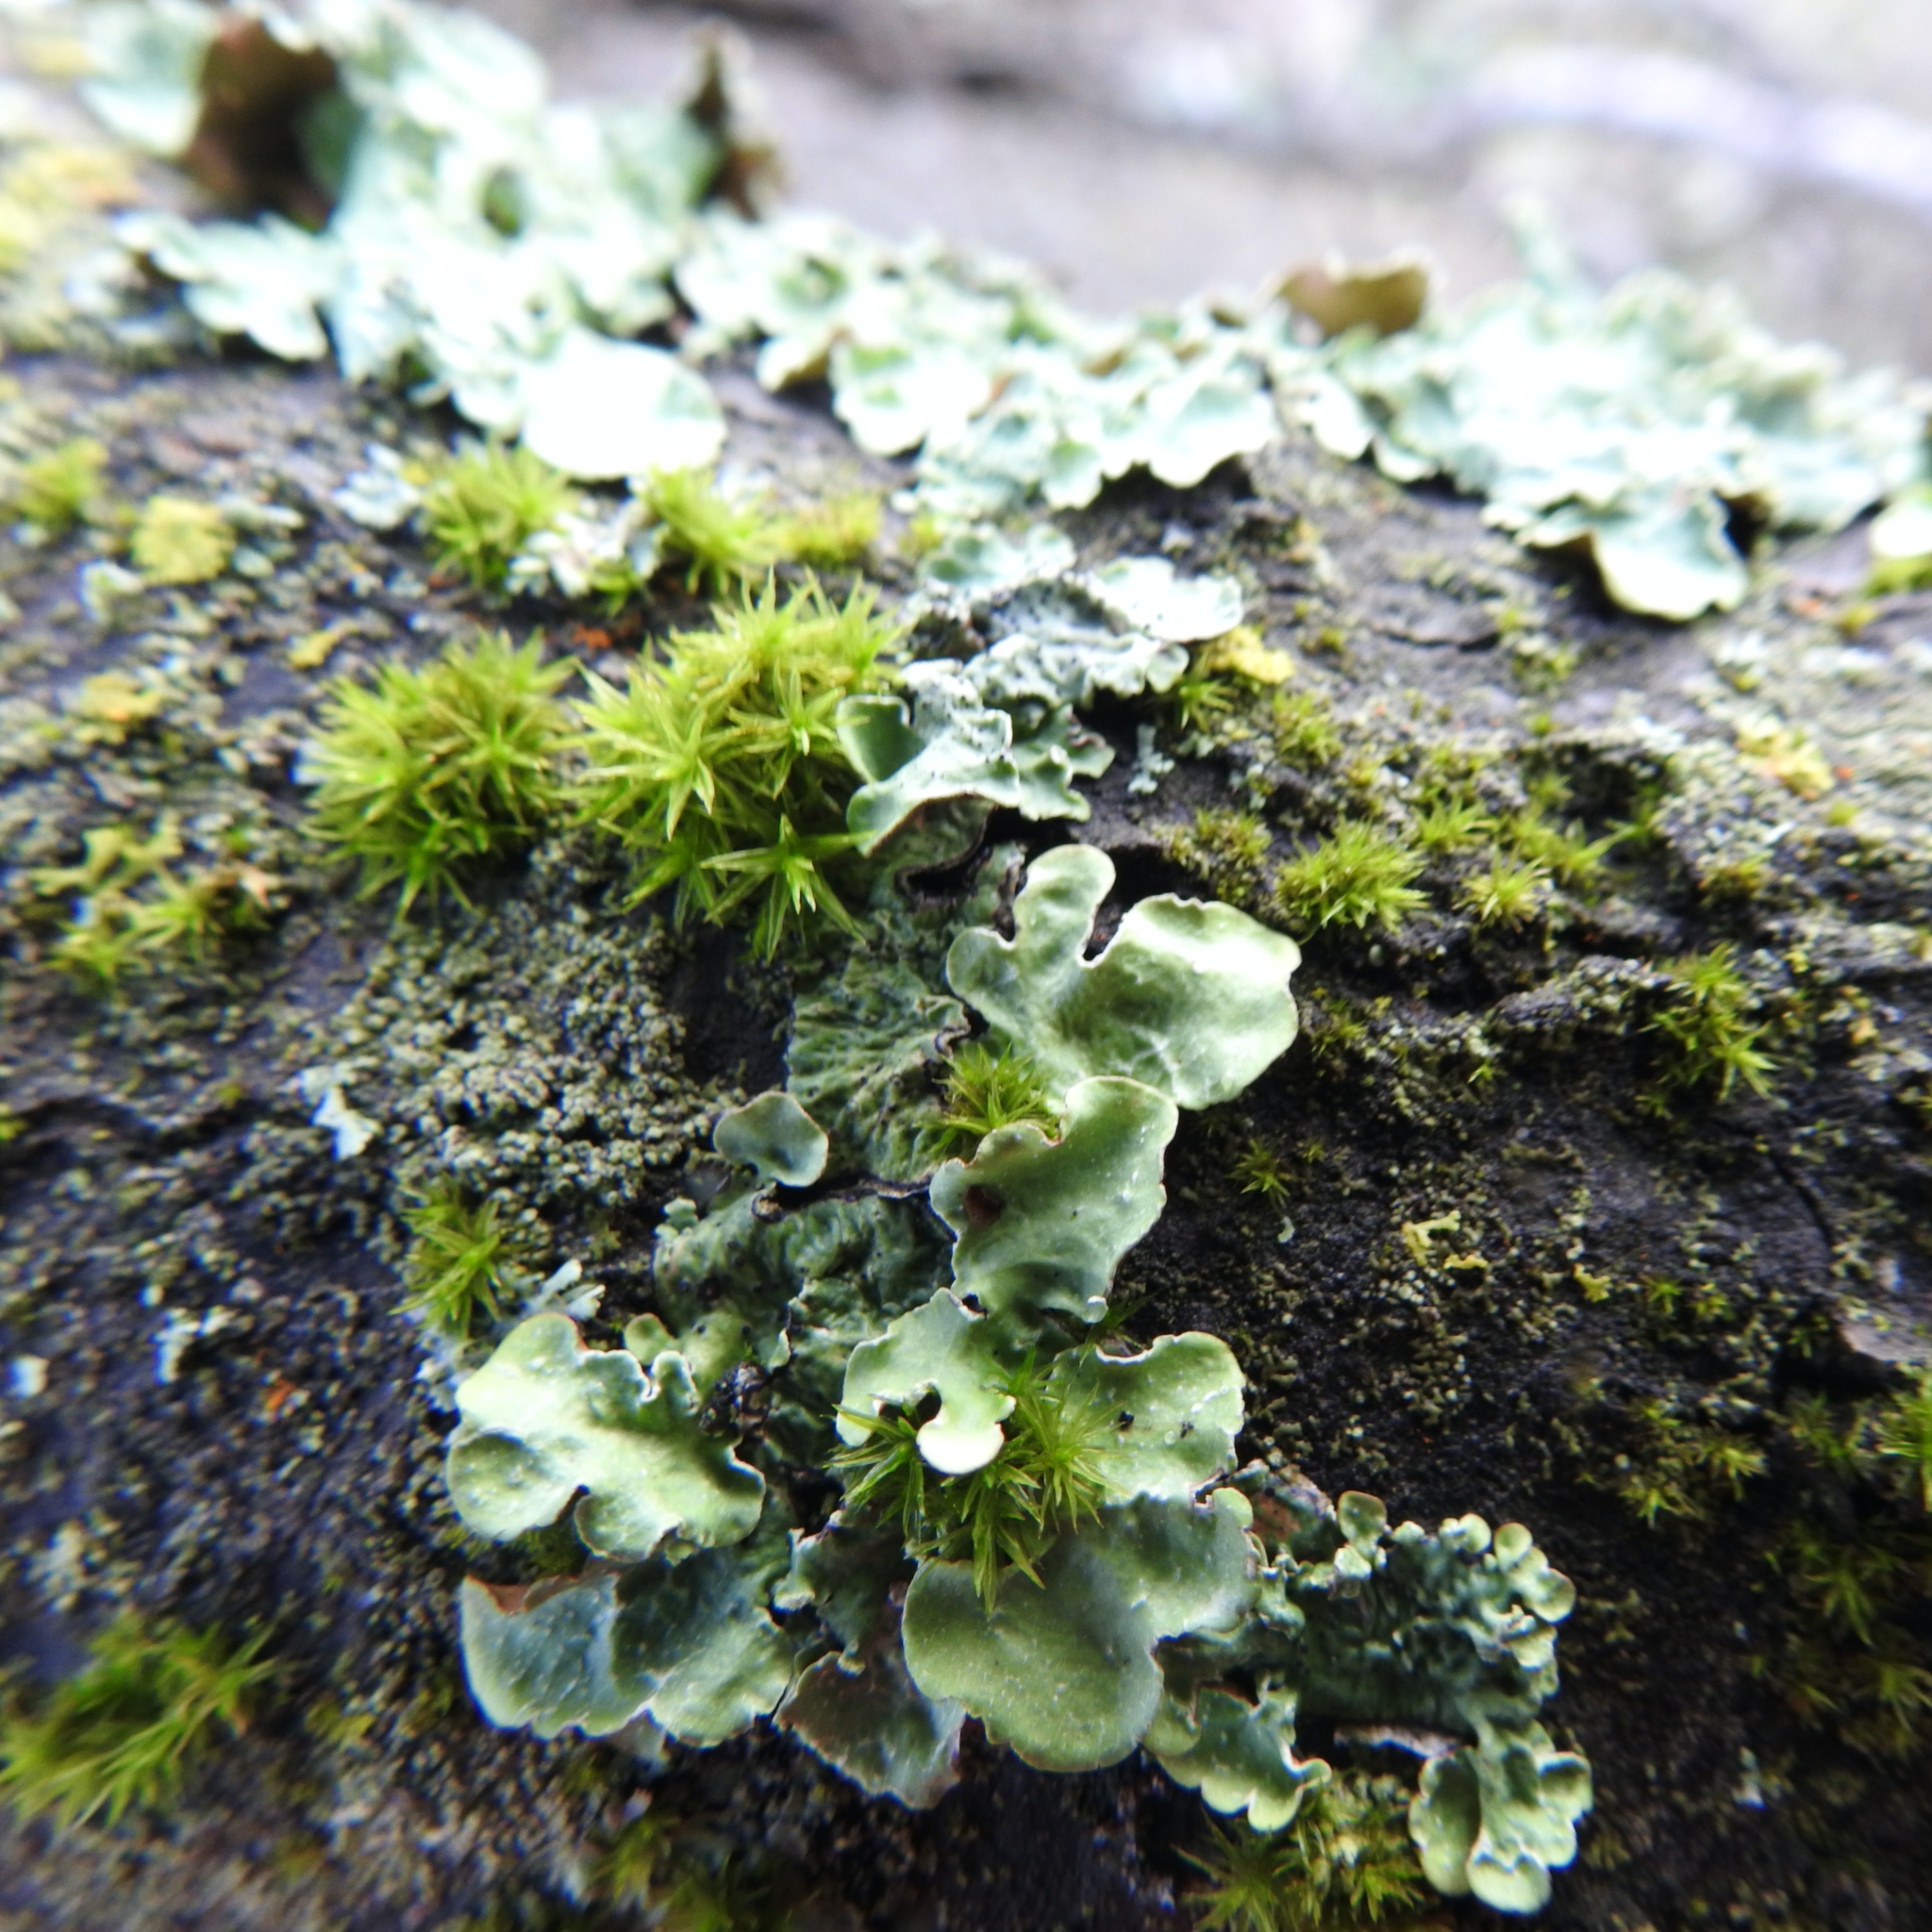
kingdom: Fungi
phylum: Ascomycota
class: Lecanoromycetes
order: Lecanorales
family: Parmeliaceae
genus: Flavopunctelia
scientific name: Flavopunctelia flaventior
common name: Speckled greenshield
